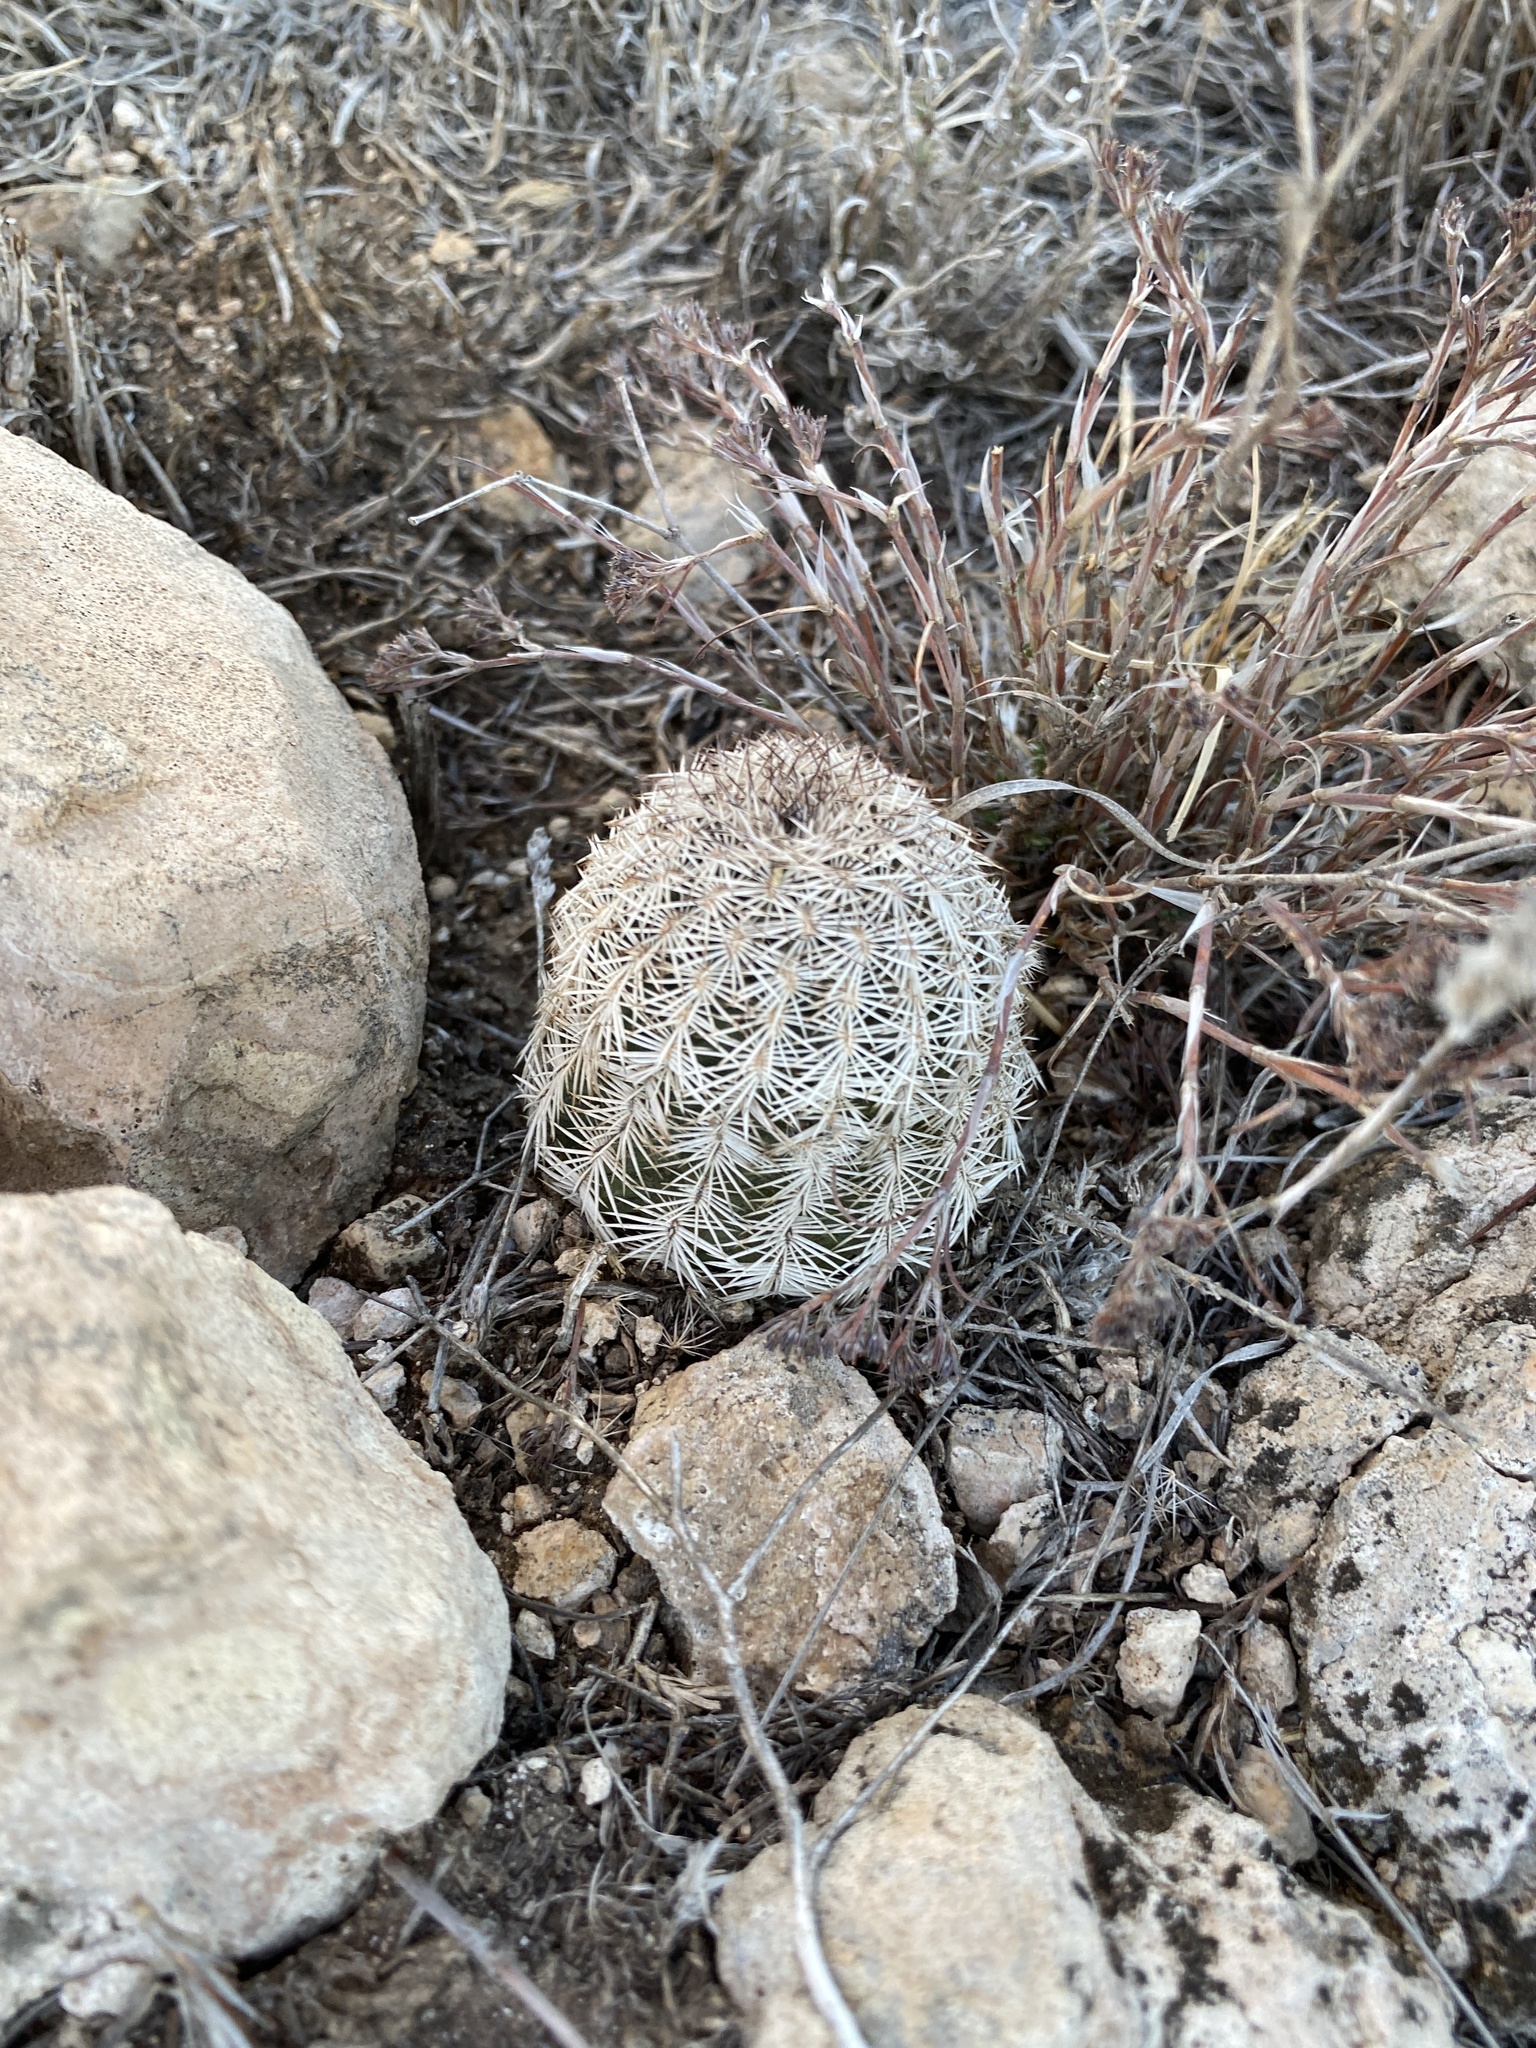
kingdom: Plantae
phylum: Tracheophyta
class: Magnoliopsida
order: Caryophyllales
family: Cactaceae
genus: Echinocereus
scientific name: Echinocereus reichenbachii
